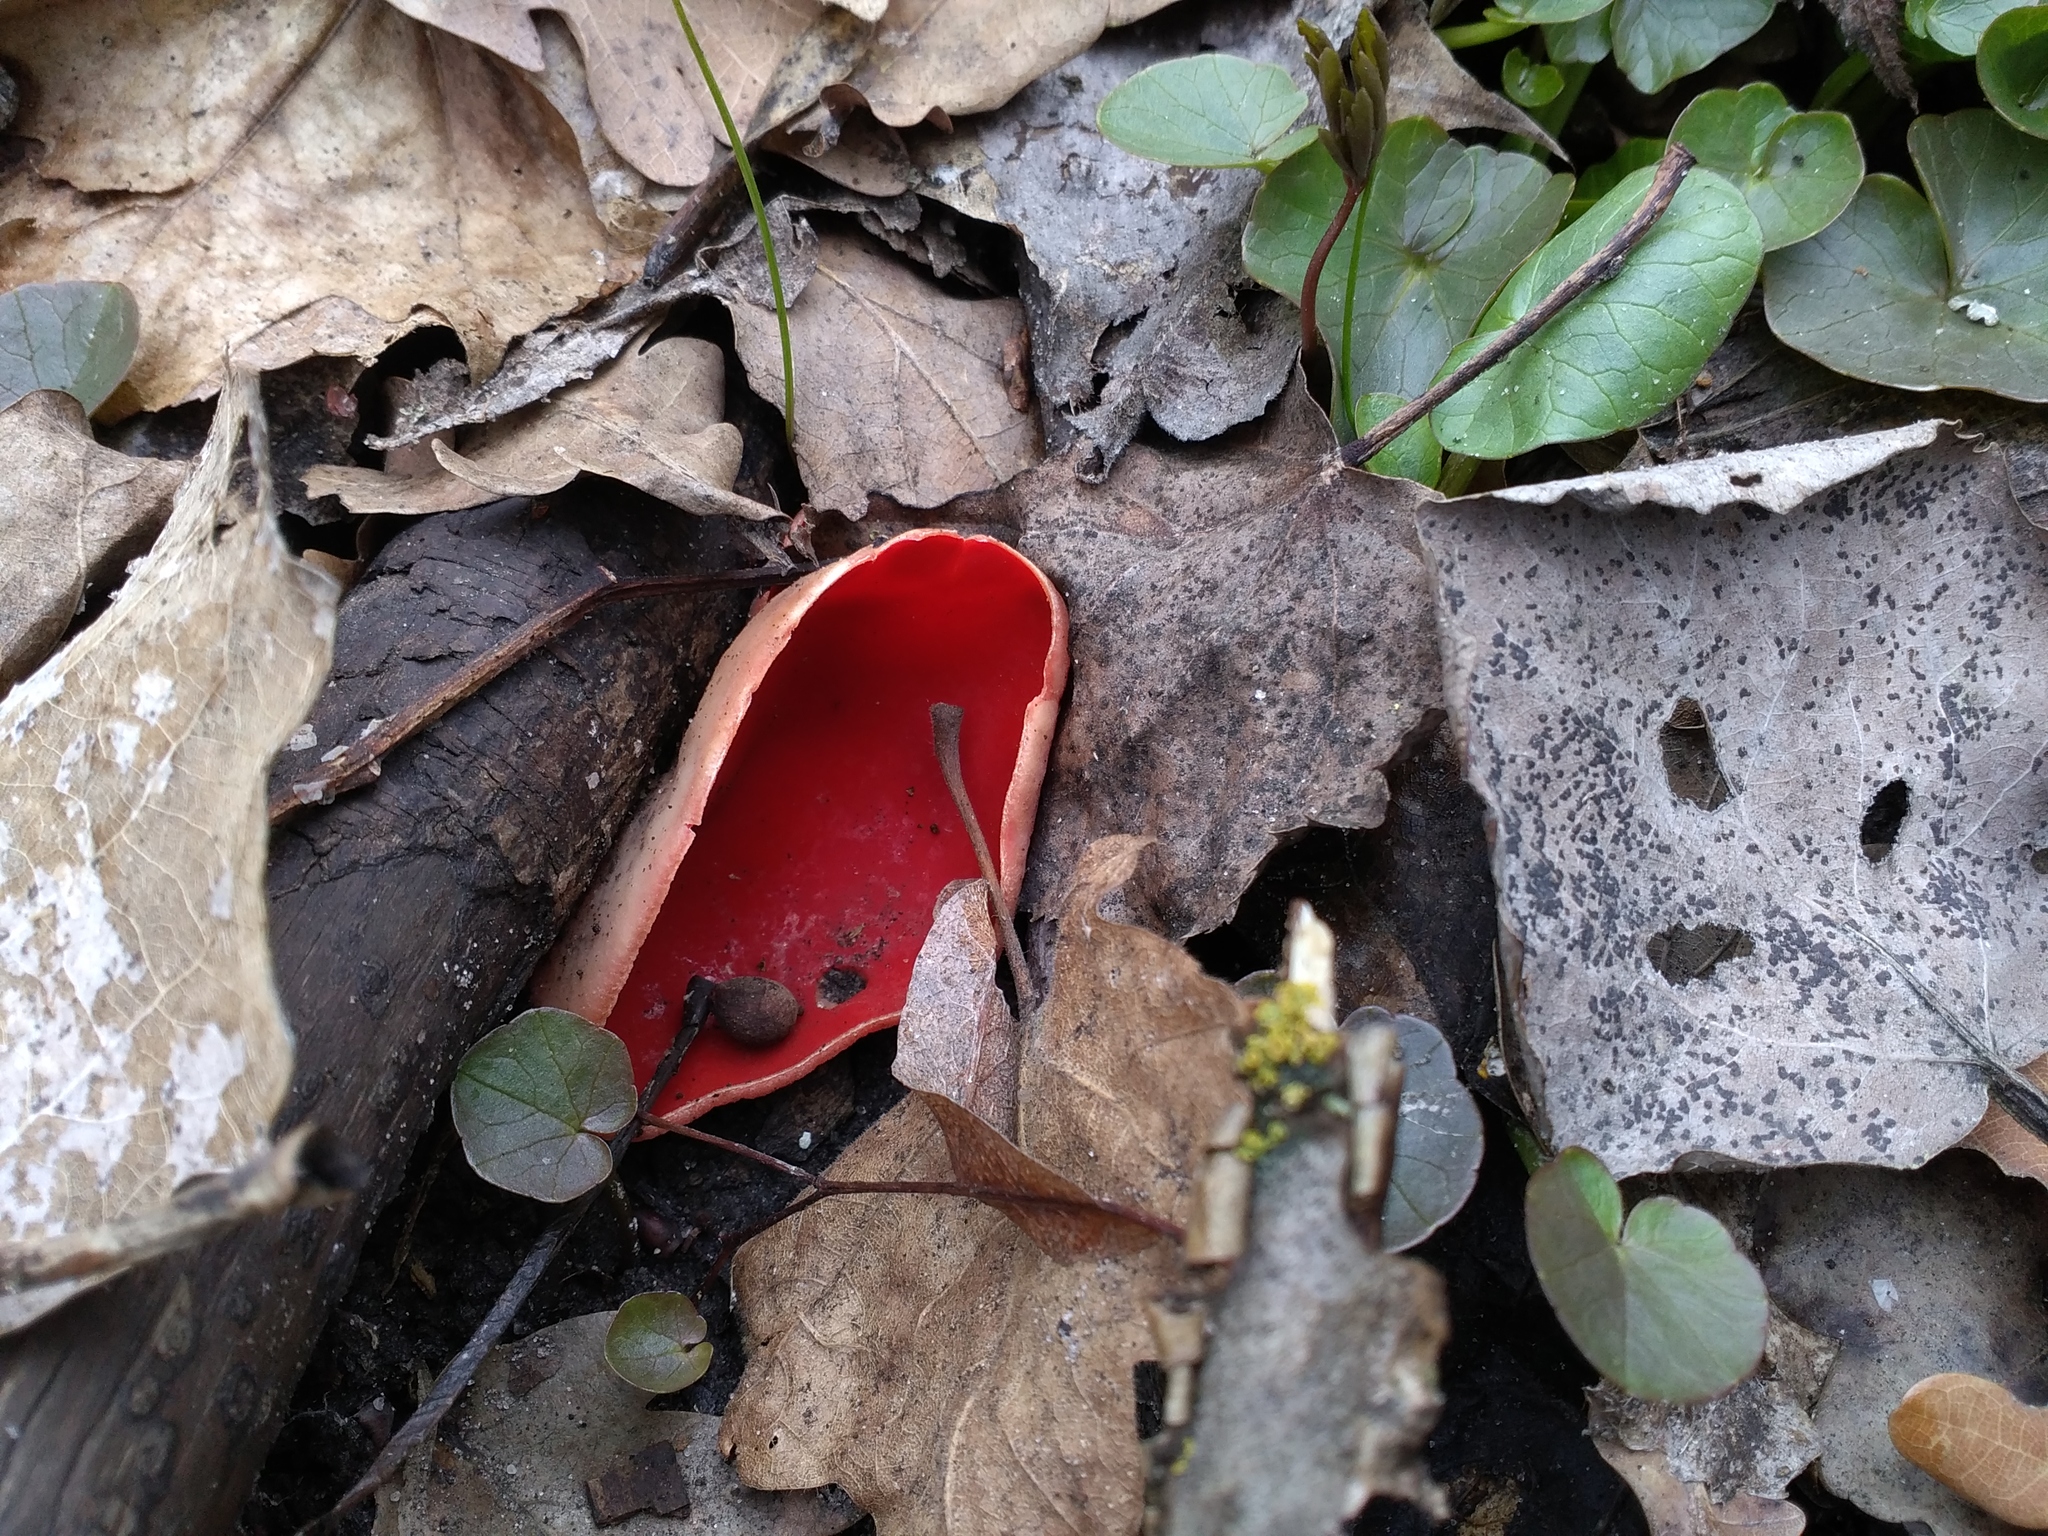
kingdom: Fungi
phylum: Ascomycota
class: Pezizomycetes
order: Pezizales
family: Sarcoscyphaceae
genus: Sarcoscypha
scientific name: Sarcoscypha austriaca
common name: Scarlet elfcup
